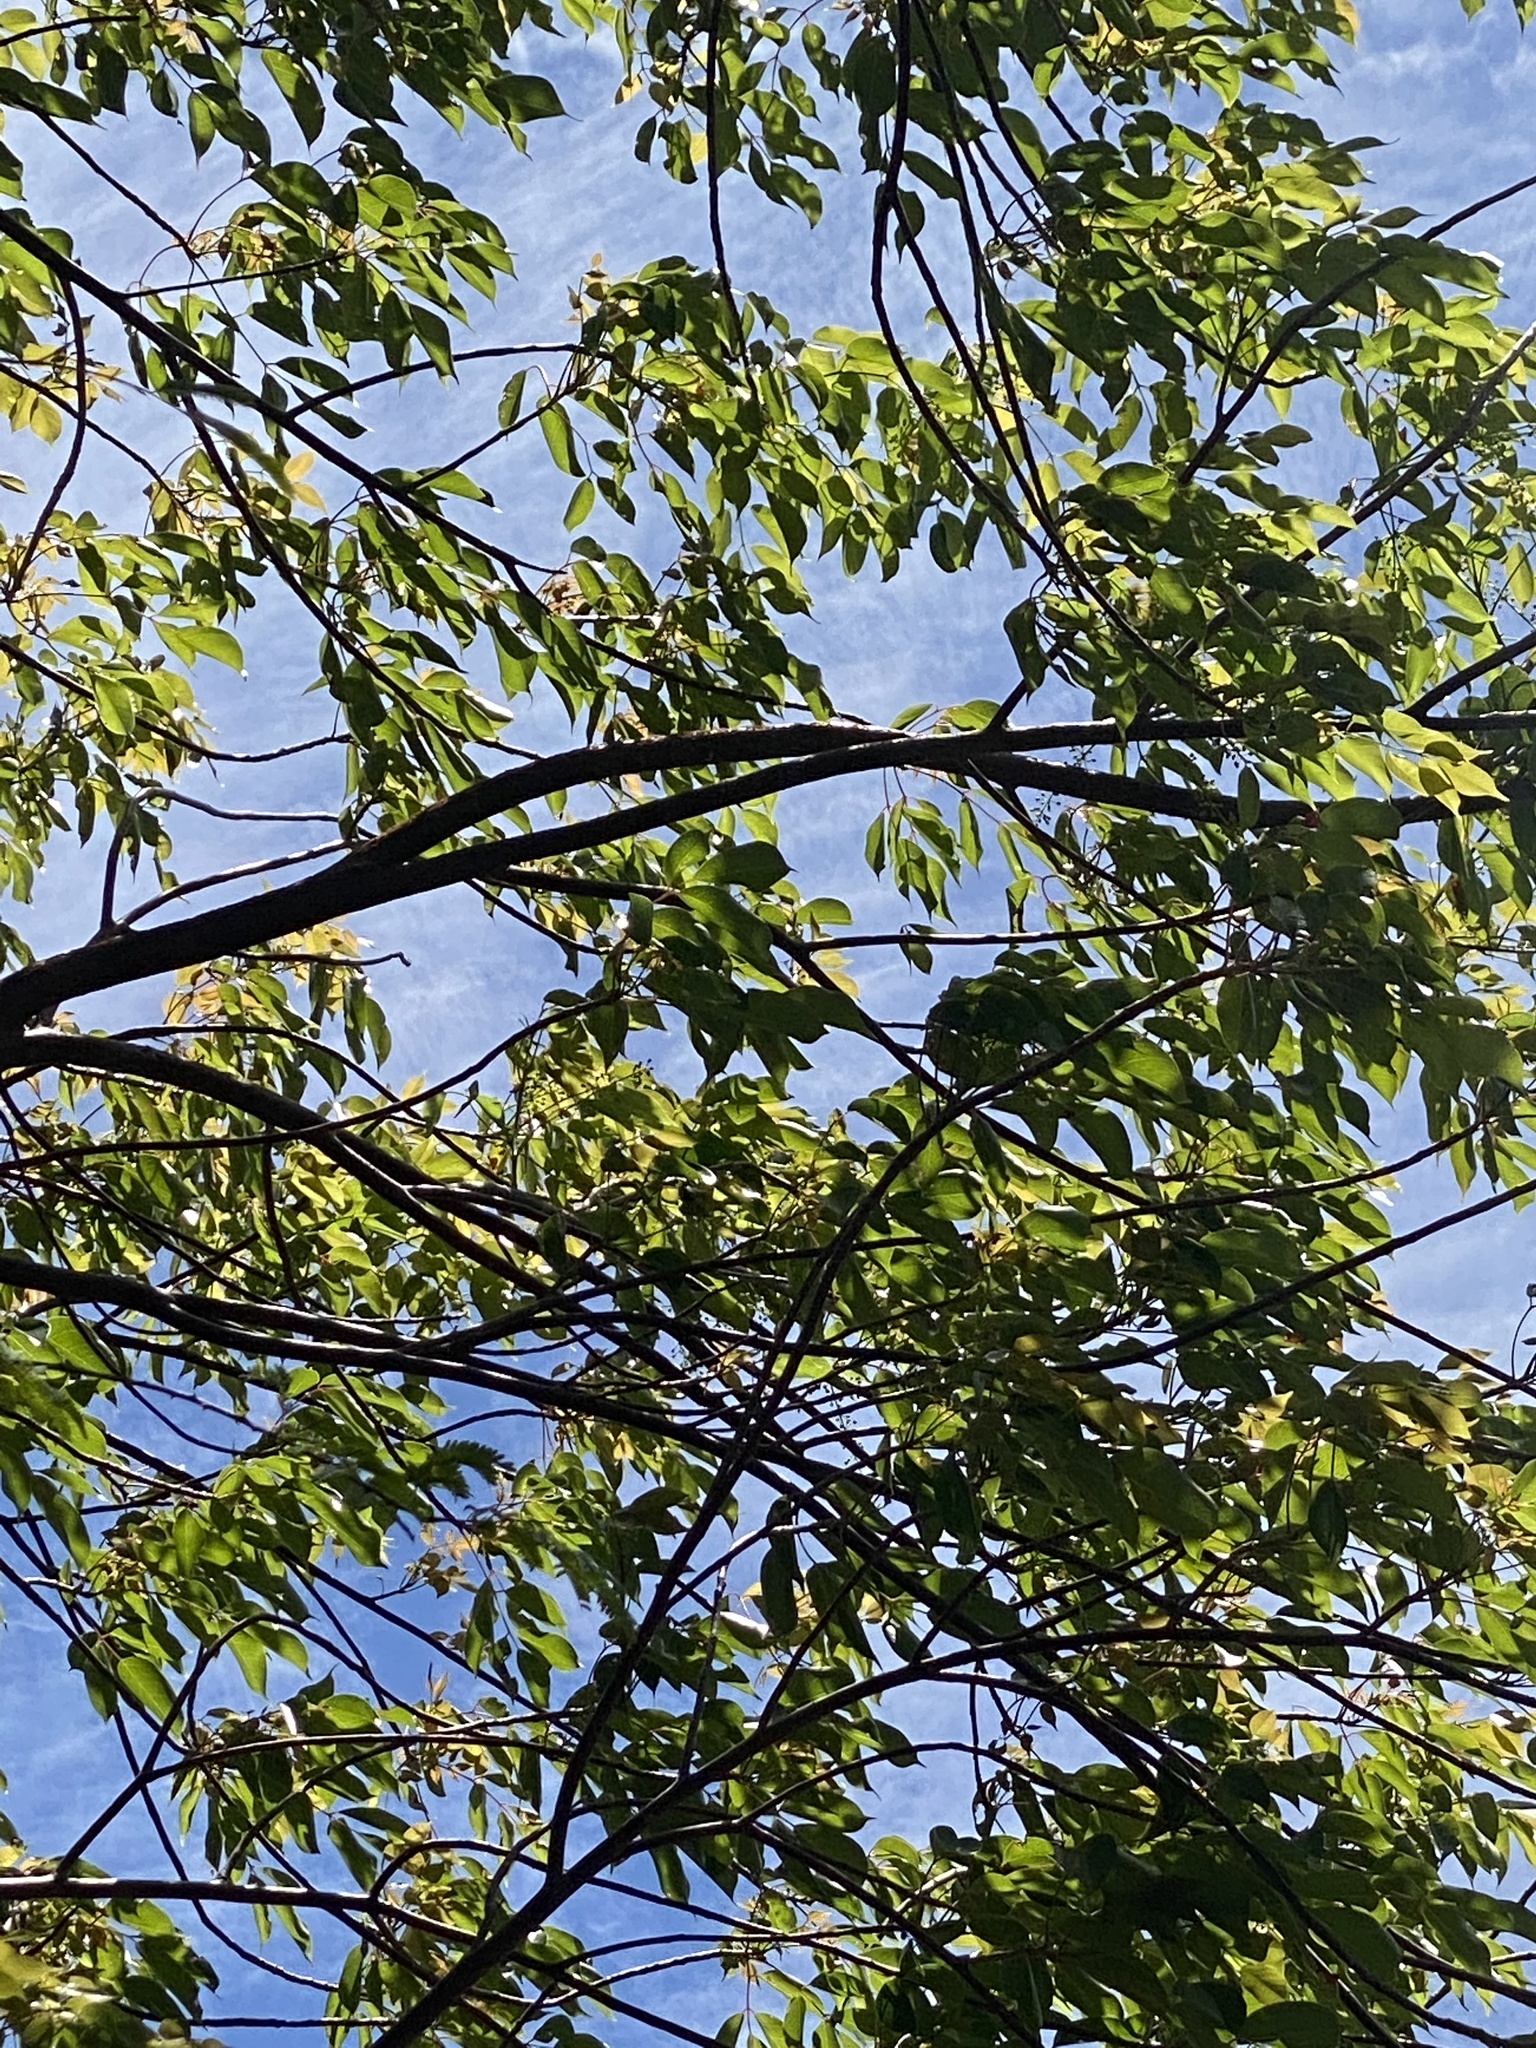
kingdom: Plantae
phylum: Tracheophyta
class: Magnoliopsida
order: Sapindales
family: Burseraceae
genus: Bursera
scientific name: Bursera simaruba
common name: Turpentine tree
